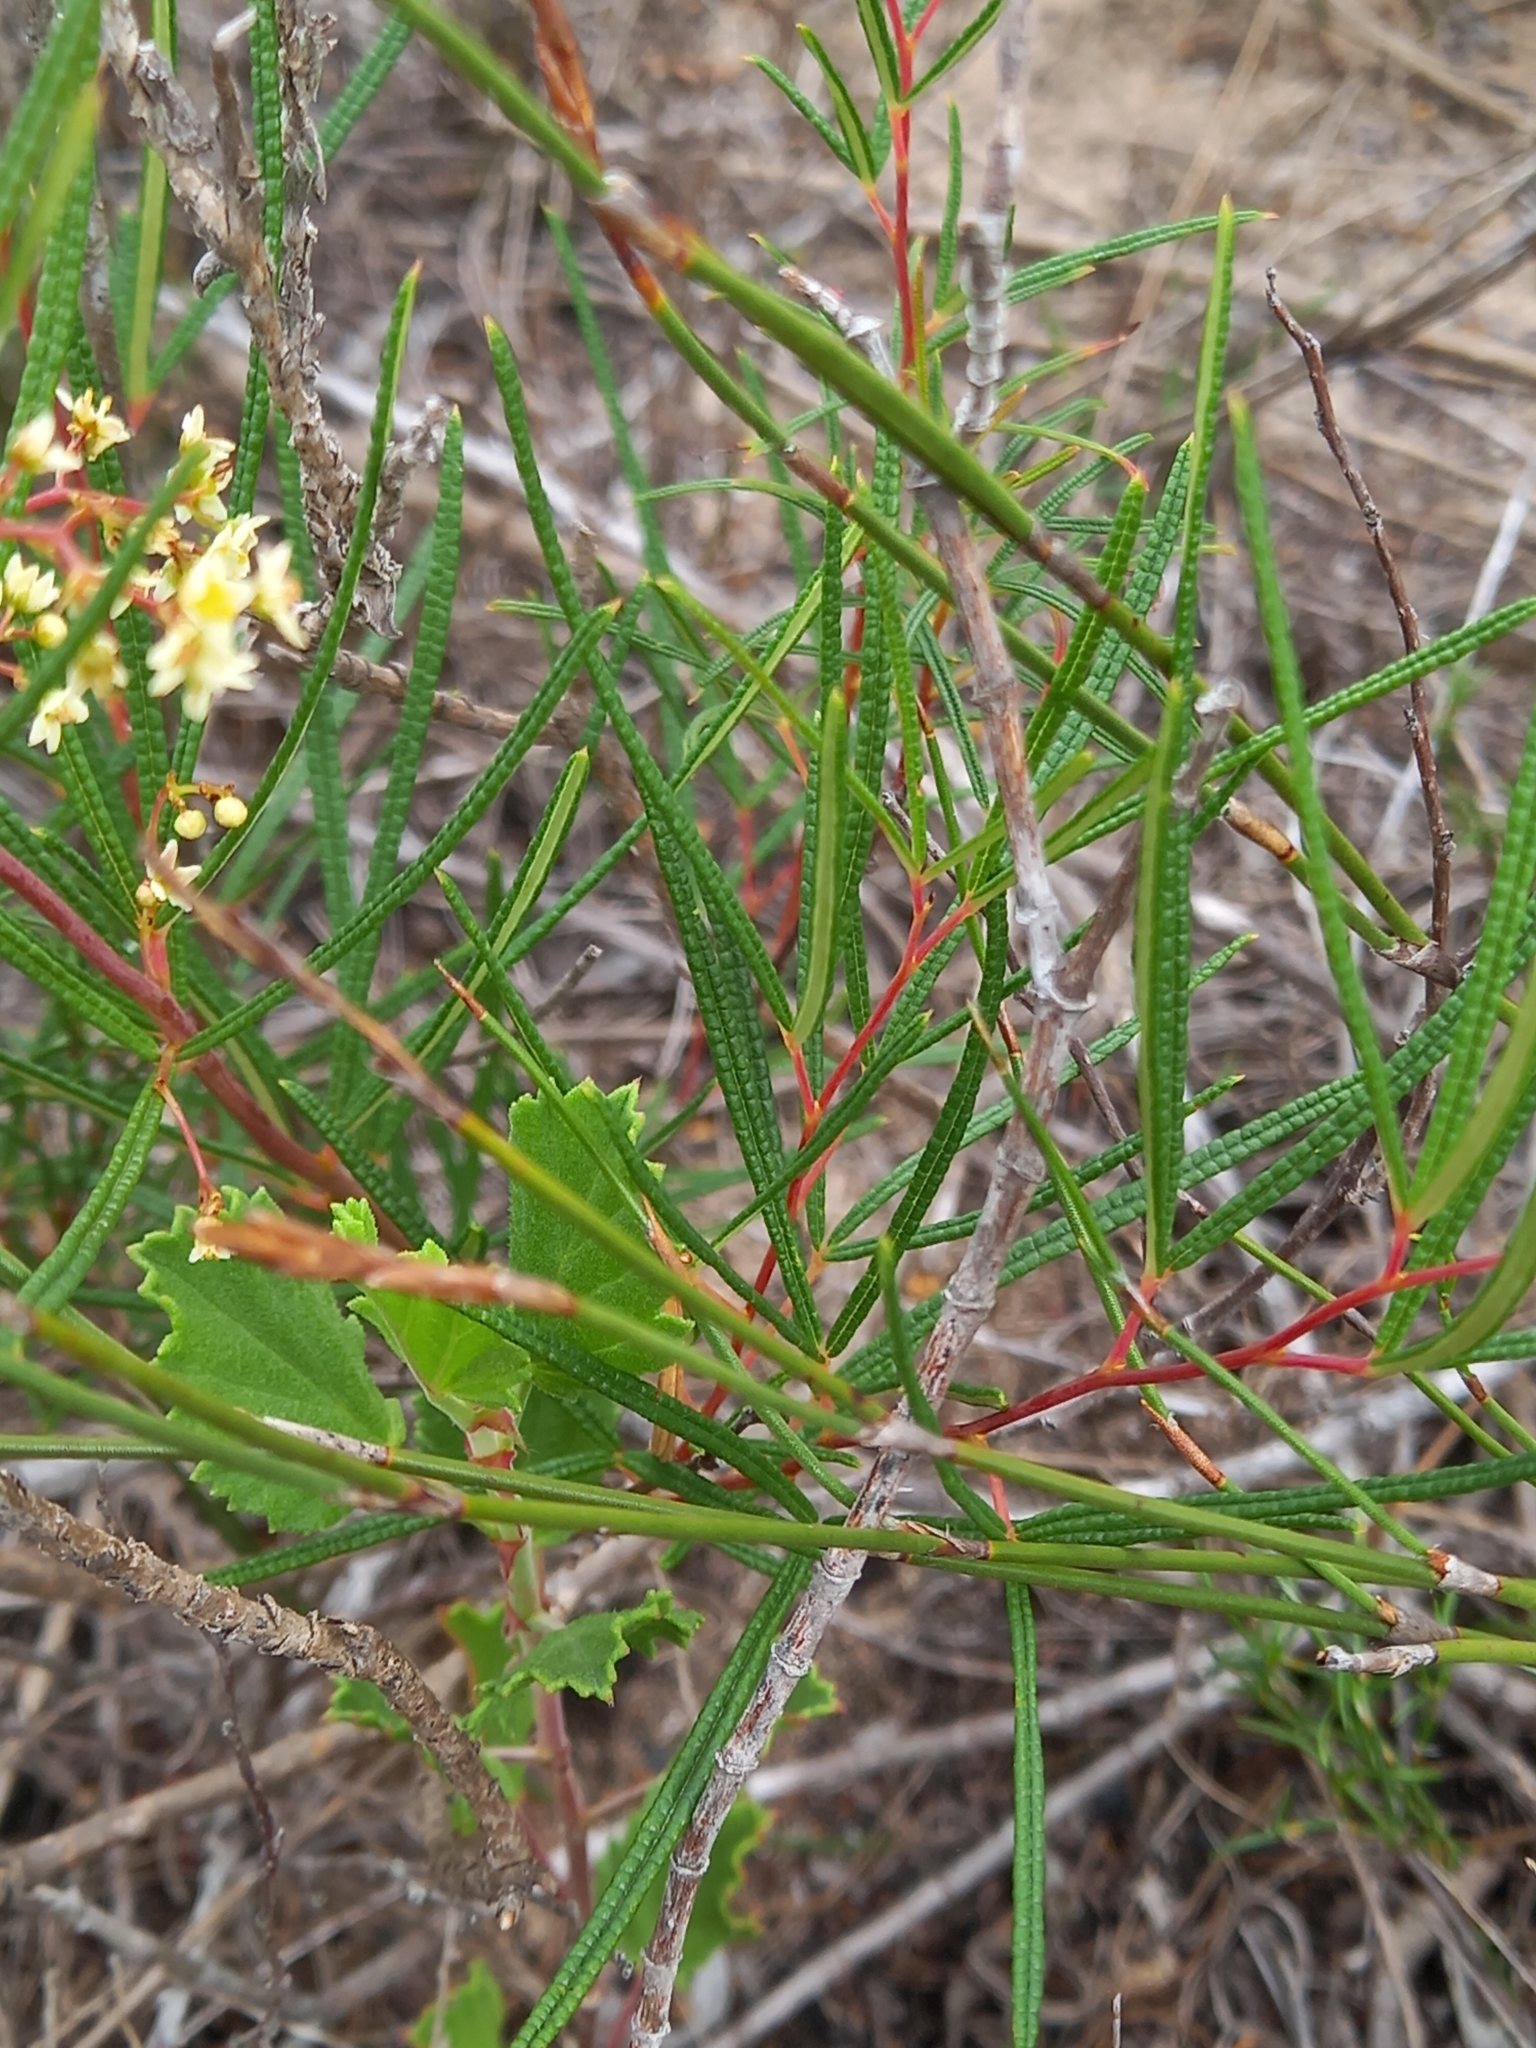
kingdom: Plantae
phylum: Tracheophyta
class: Magnoliopsida
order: Sapindales
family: Anacardiaceae
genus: Searsia
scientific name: Searsia rosmarinifolia
